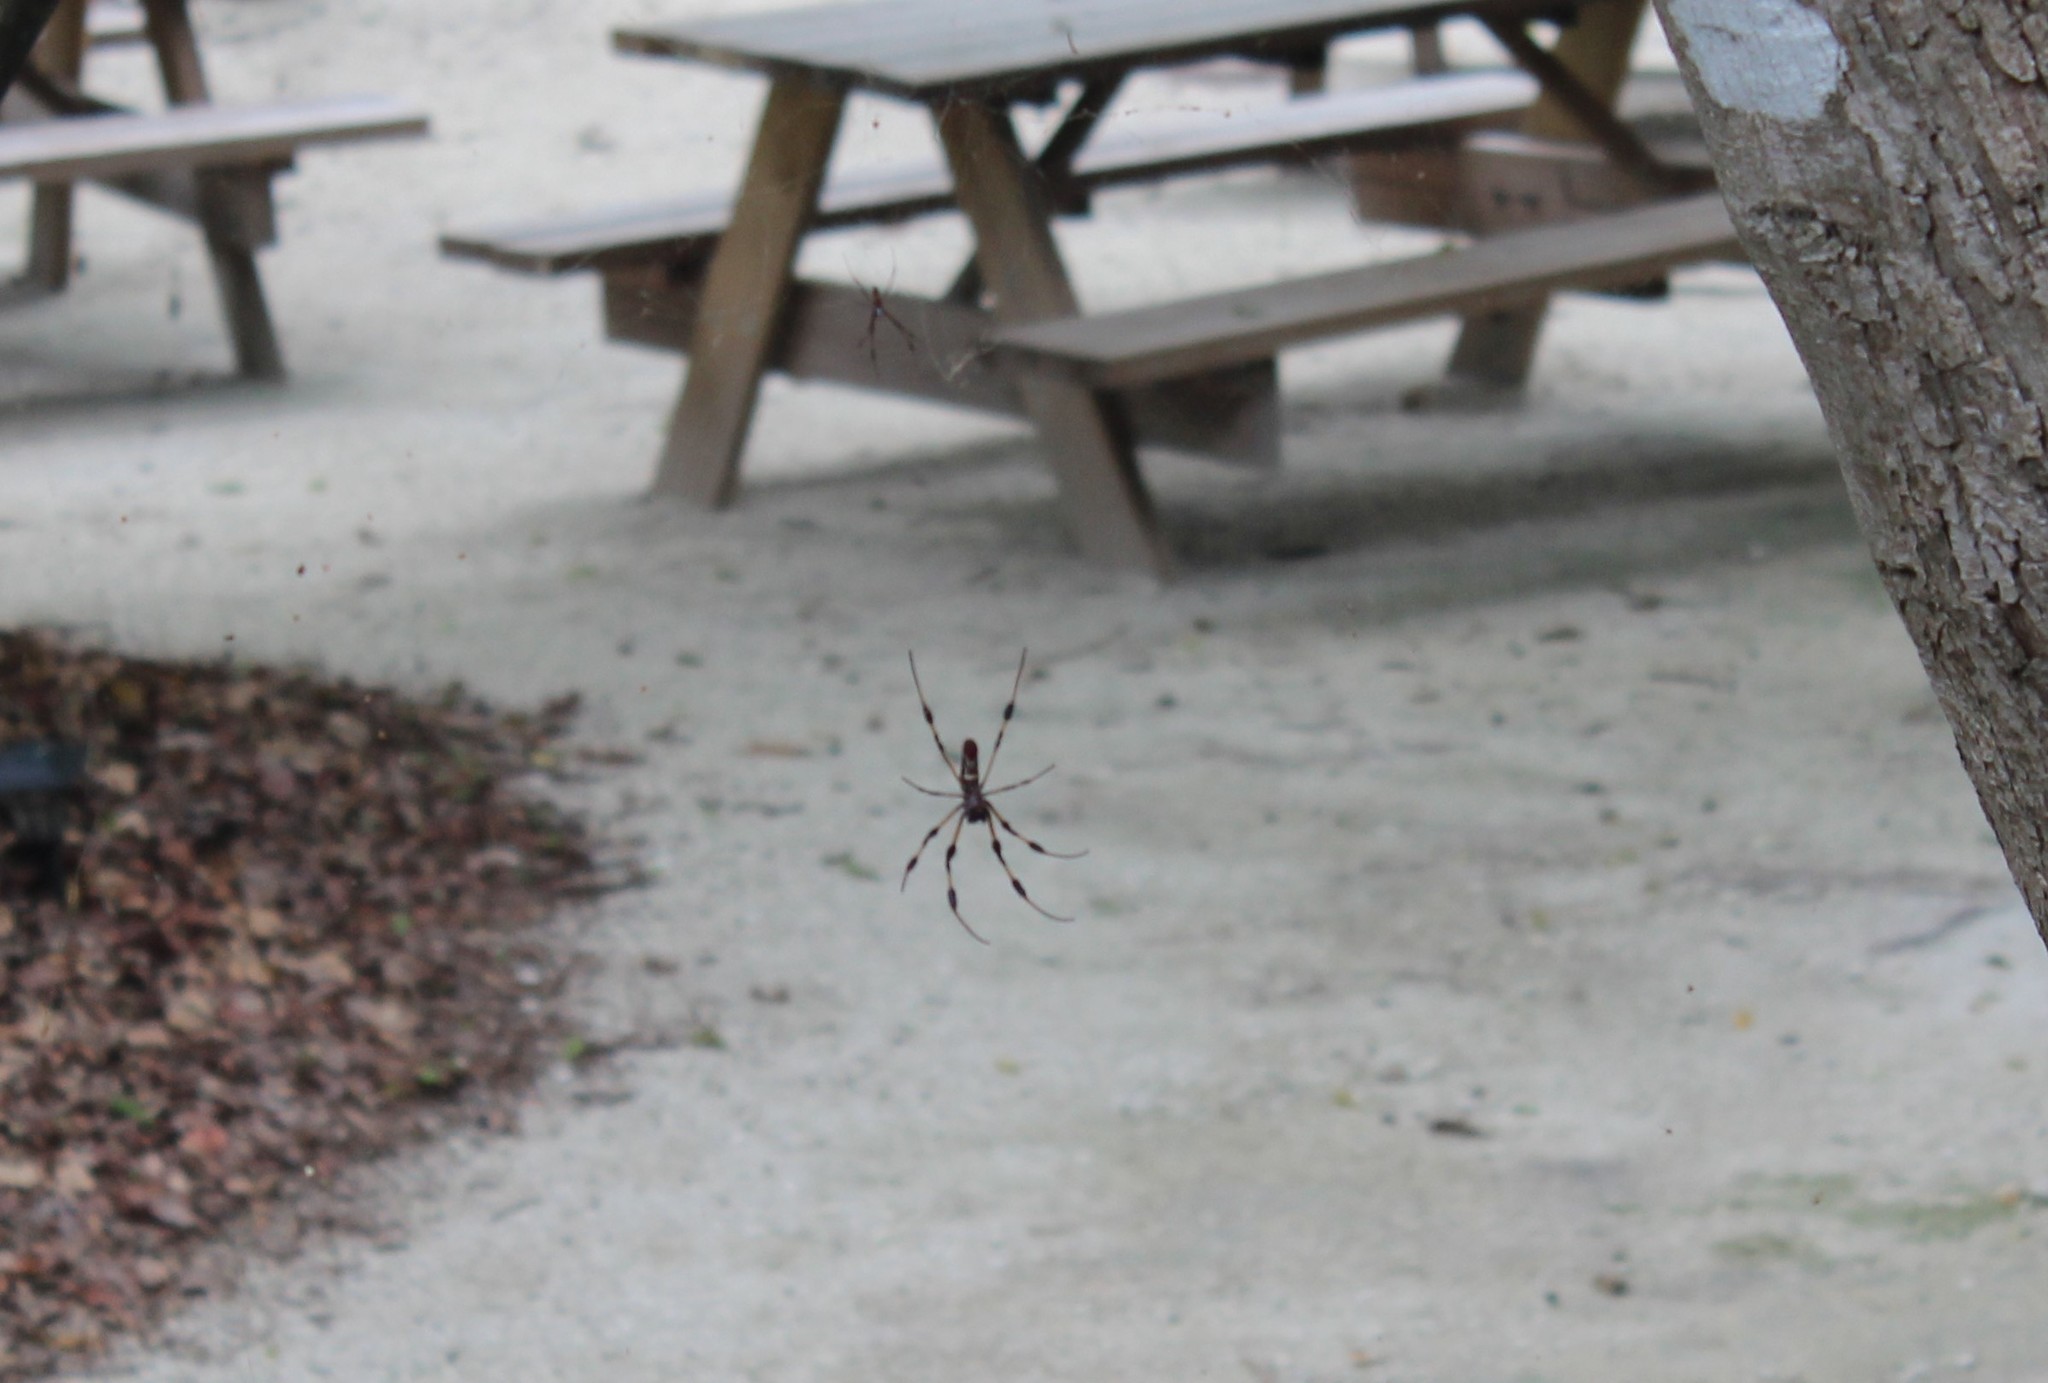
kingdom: Animalia
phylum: Arthropoda
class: Arachnida
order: Araneae
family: Araneidae
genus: Trichonephila
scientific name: Trichonephila clavipes
